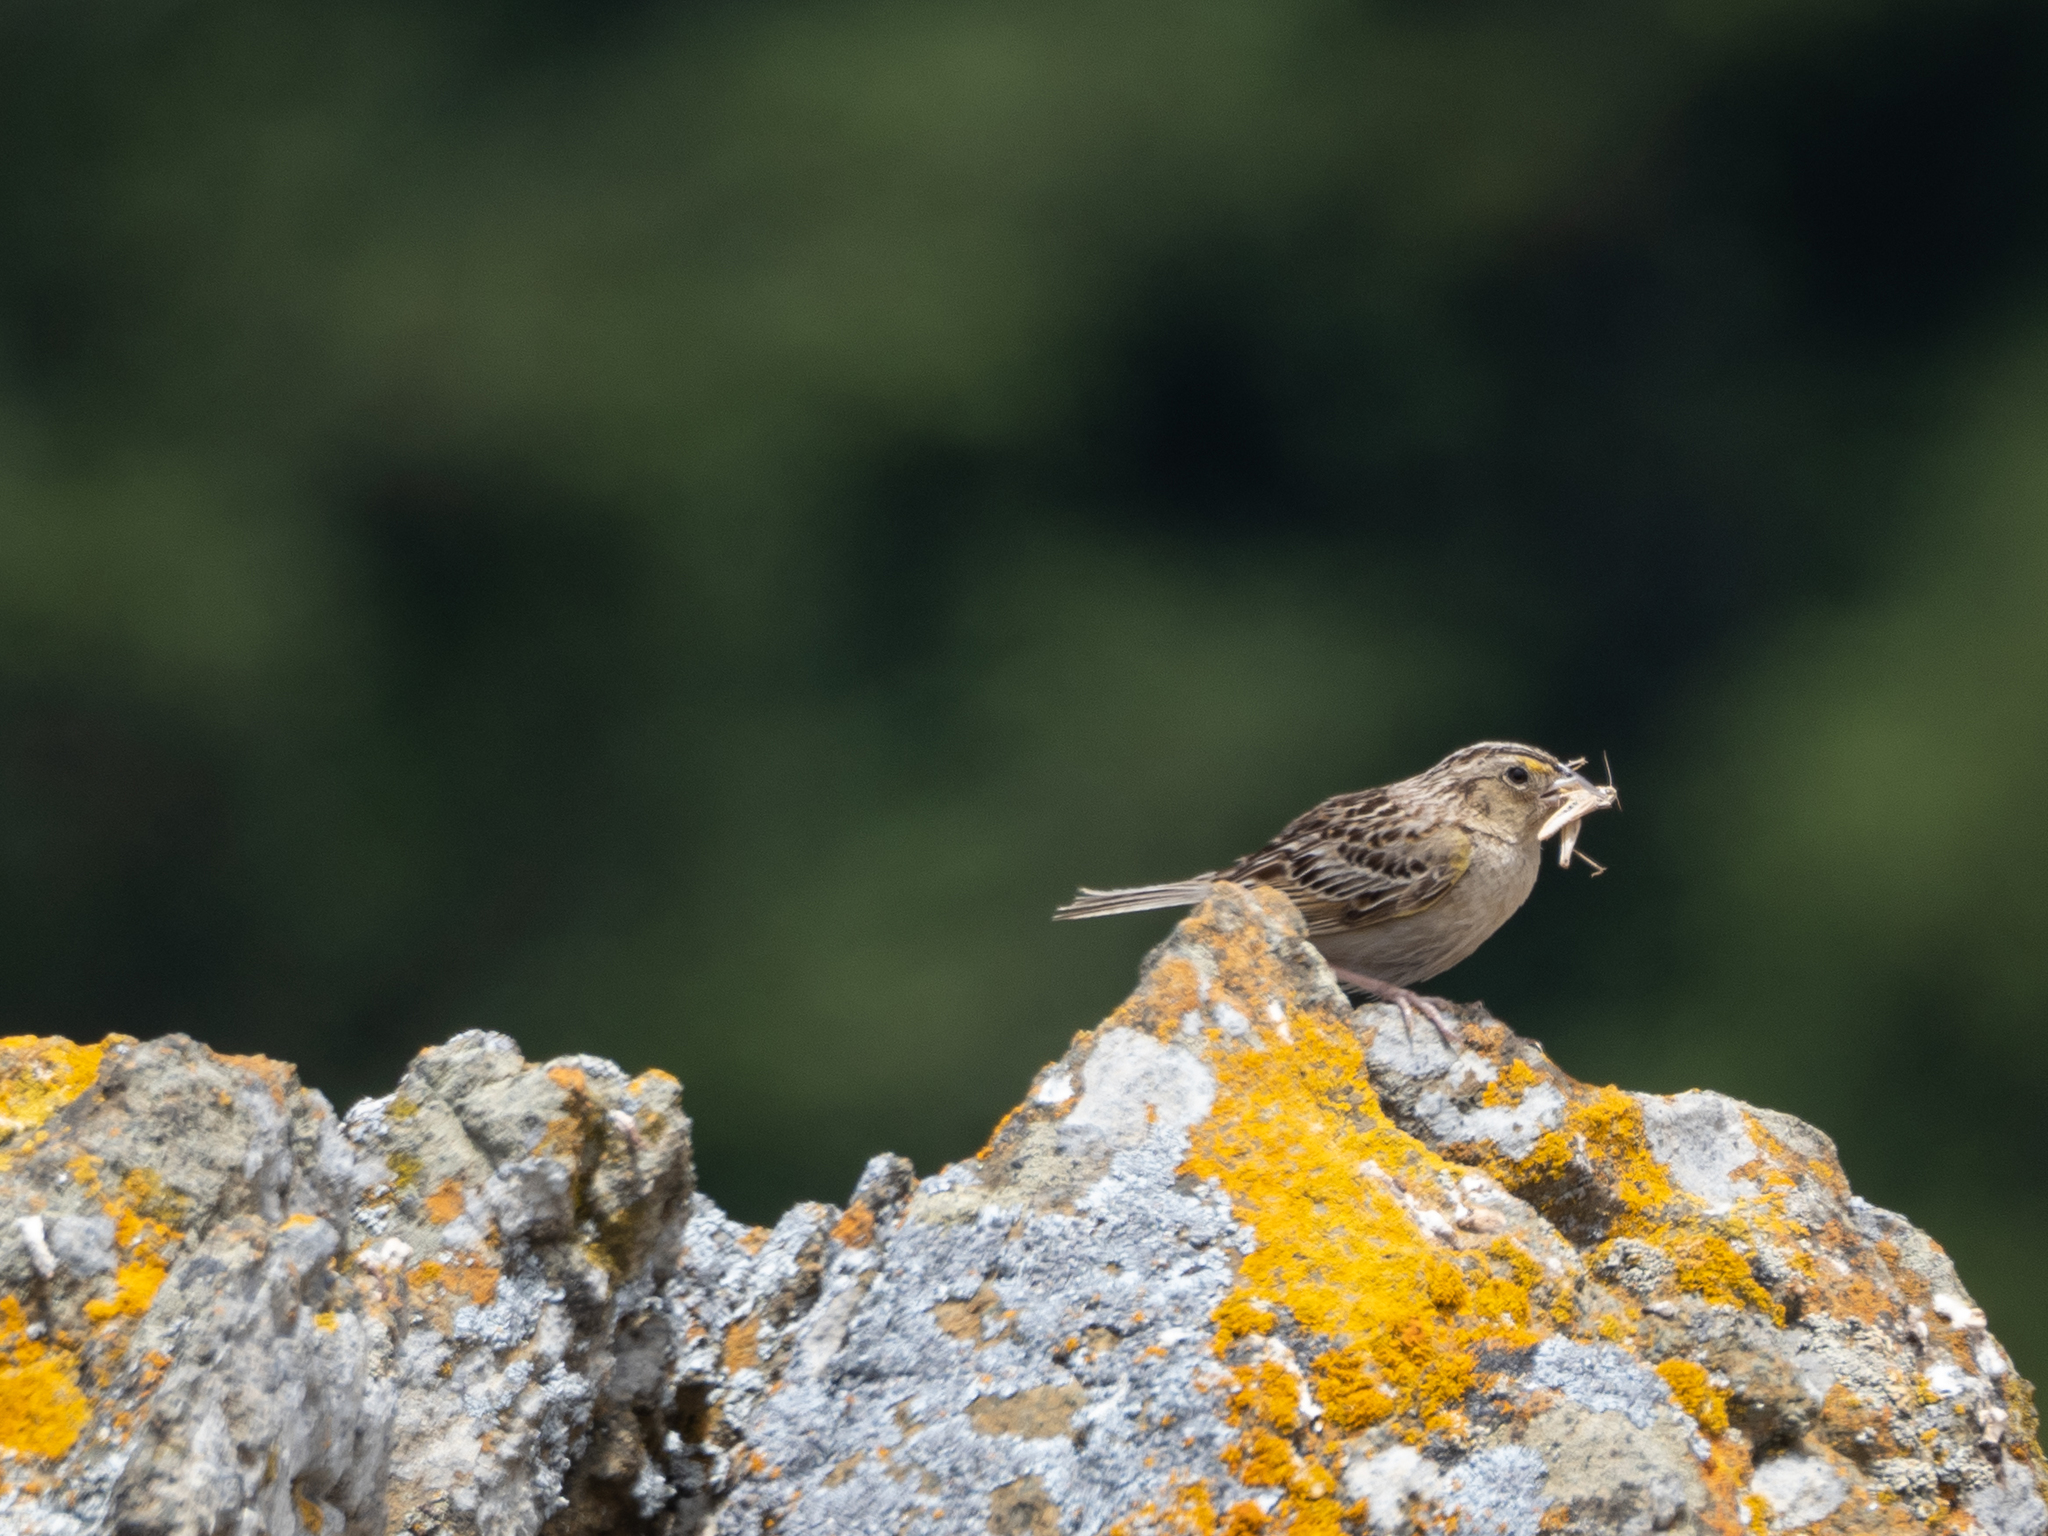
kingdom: Animalia
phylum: Chordata
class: Aves
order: Passeriformes
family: Passerellidae
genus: Ammodramus
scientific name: Ammodramus savannarum
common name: Grasshopper sparrow
